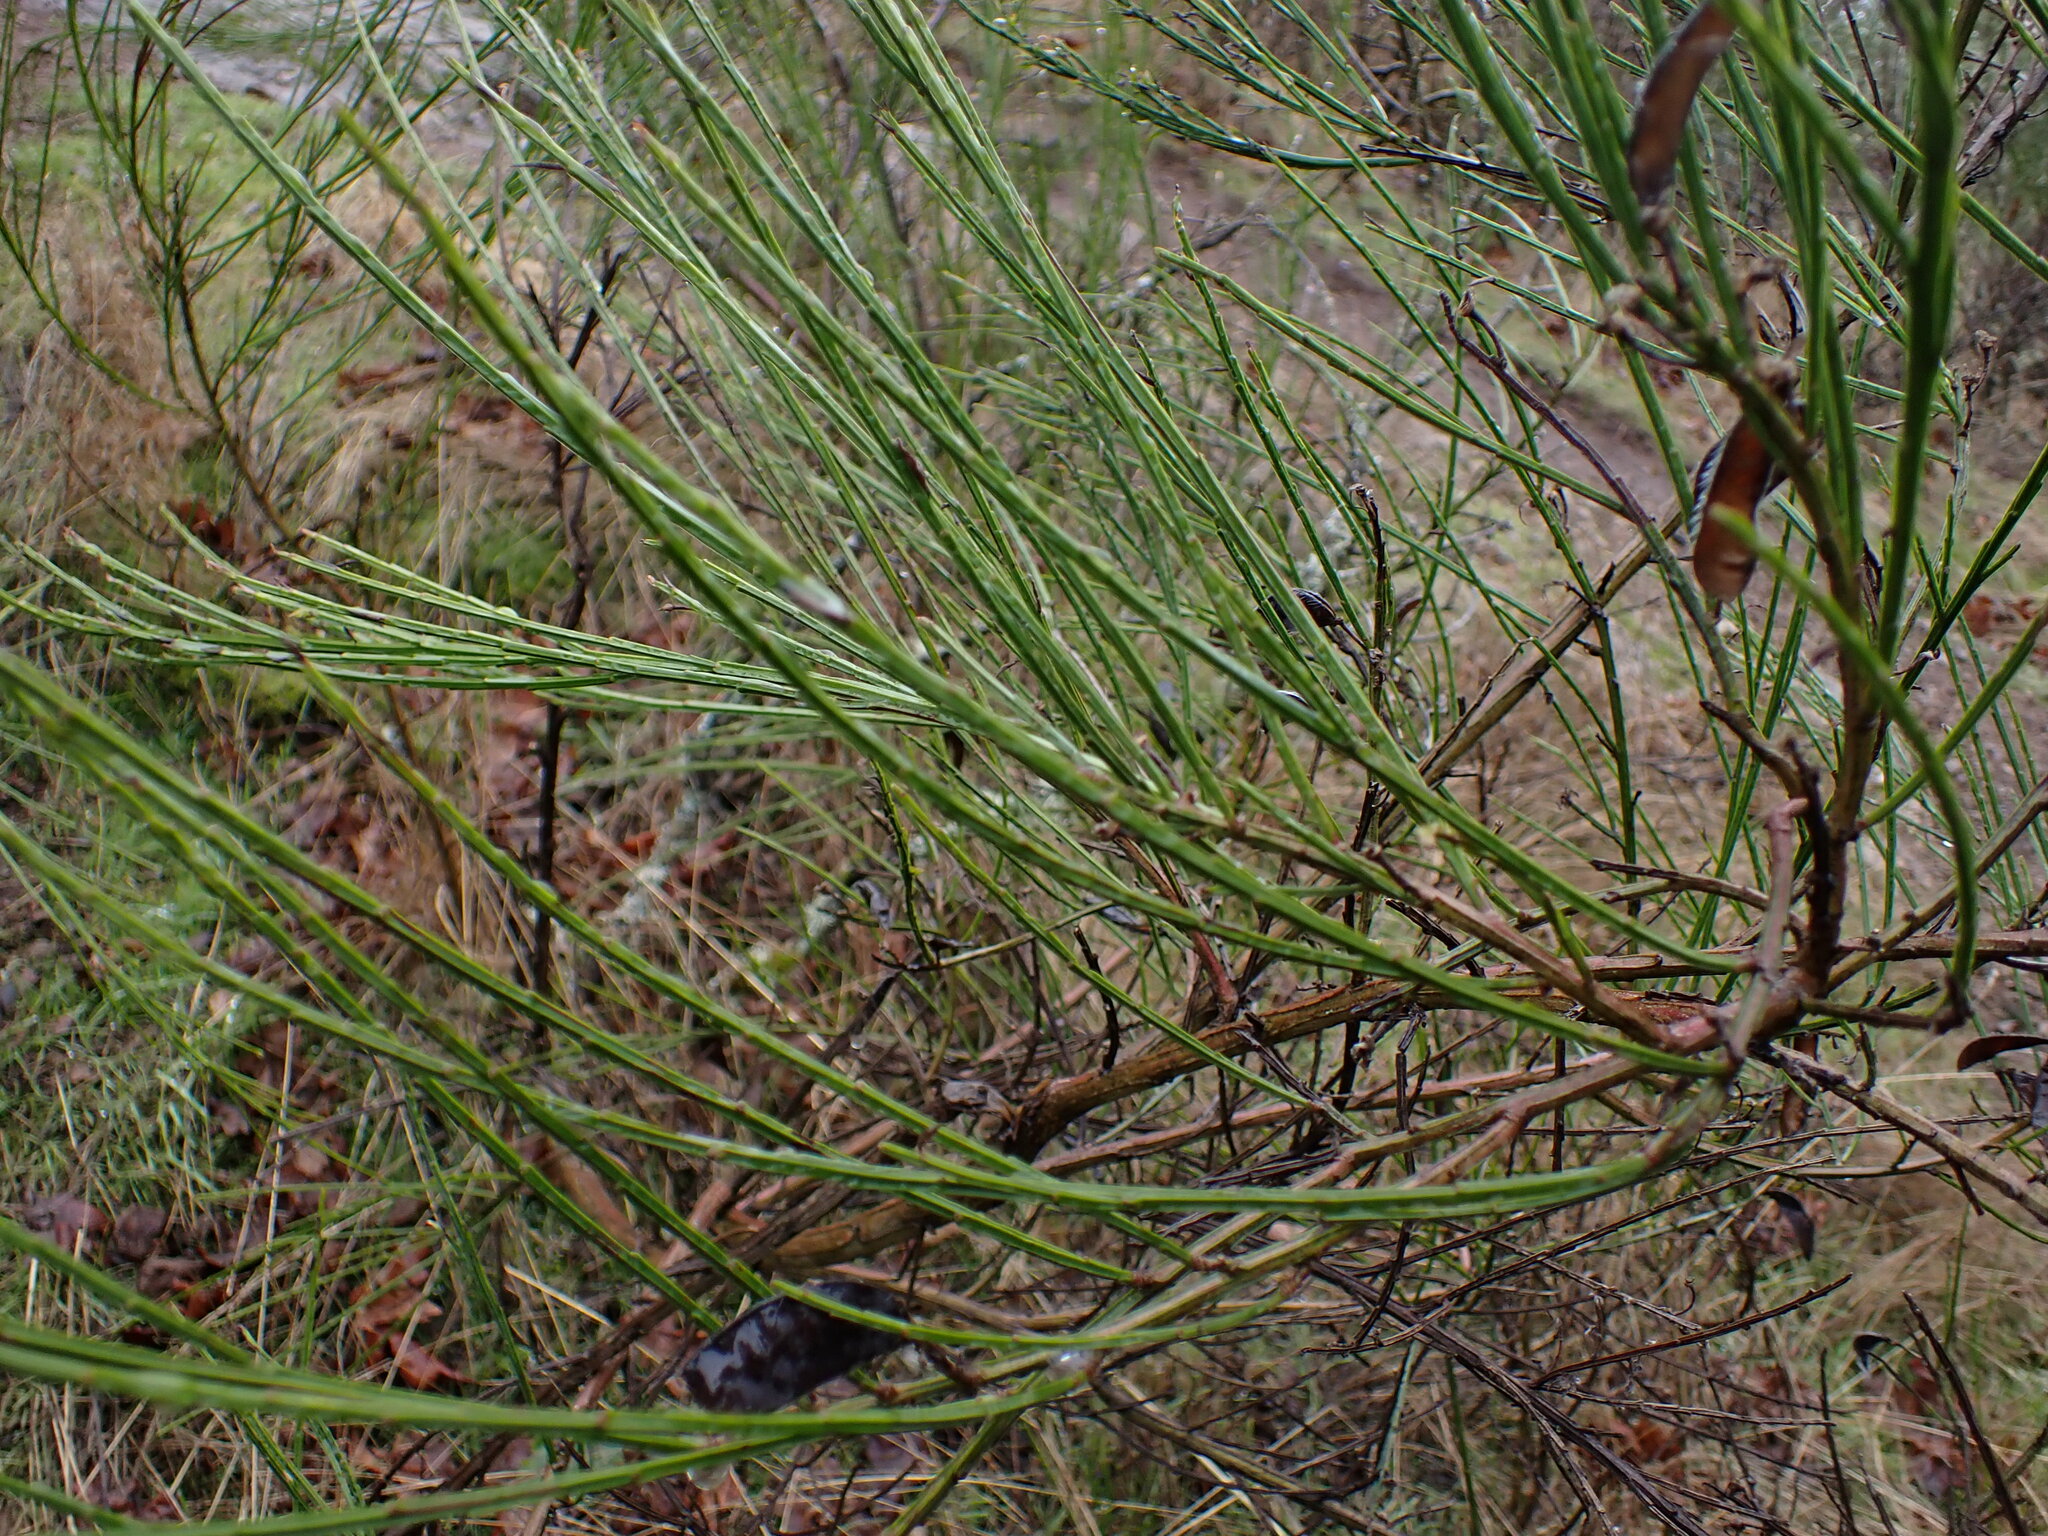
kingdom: Plantae
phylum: Tracheophyta
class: Magnoliopsida
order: Fabales
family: Fabaceae
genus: Cytisus
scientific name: Cytisus scoparius
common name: Scotch broom
